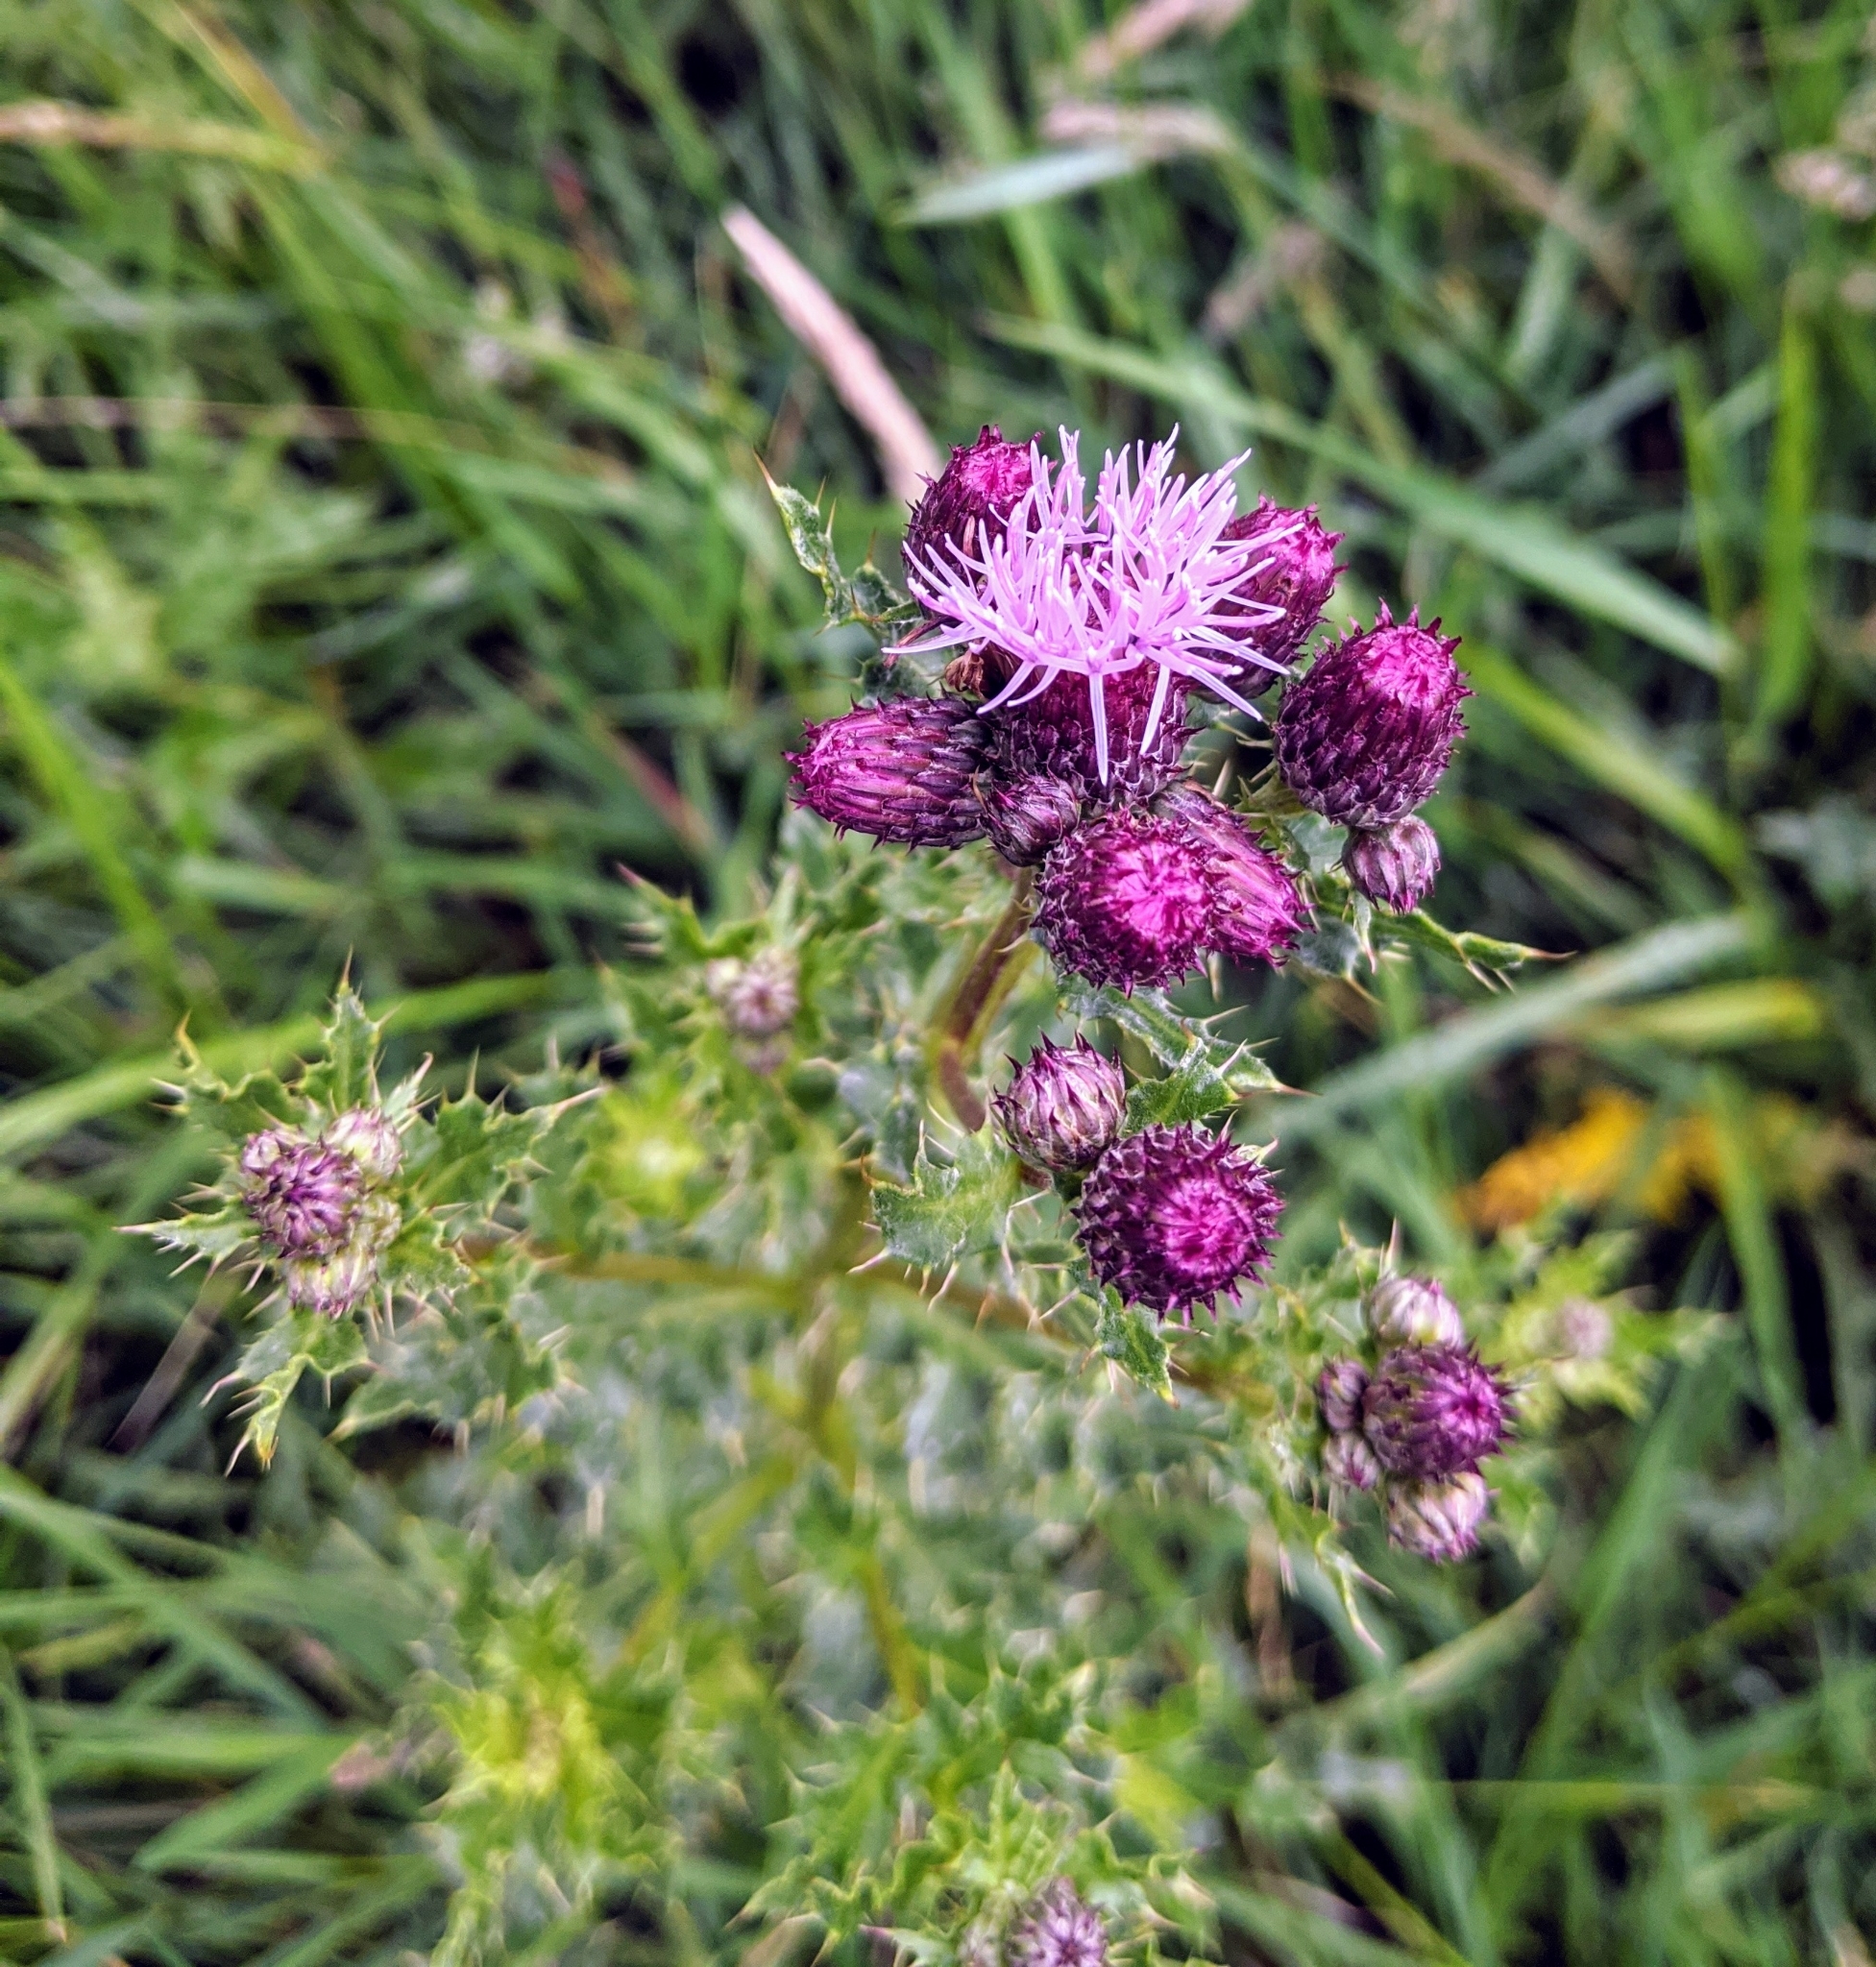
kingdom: Plantae
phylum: Tracheophyta
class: Magnoliopsida
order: Asterales
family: Asteraceae
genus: Cirsium
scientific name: Cirsium arvense
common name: Creeping thistle
